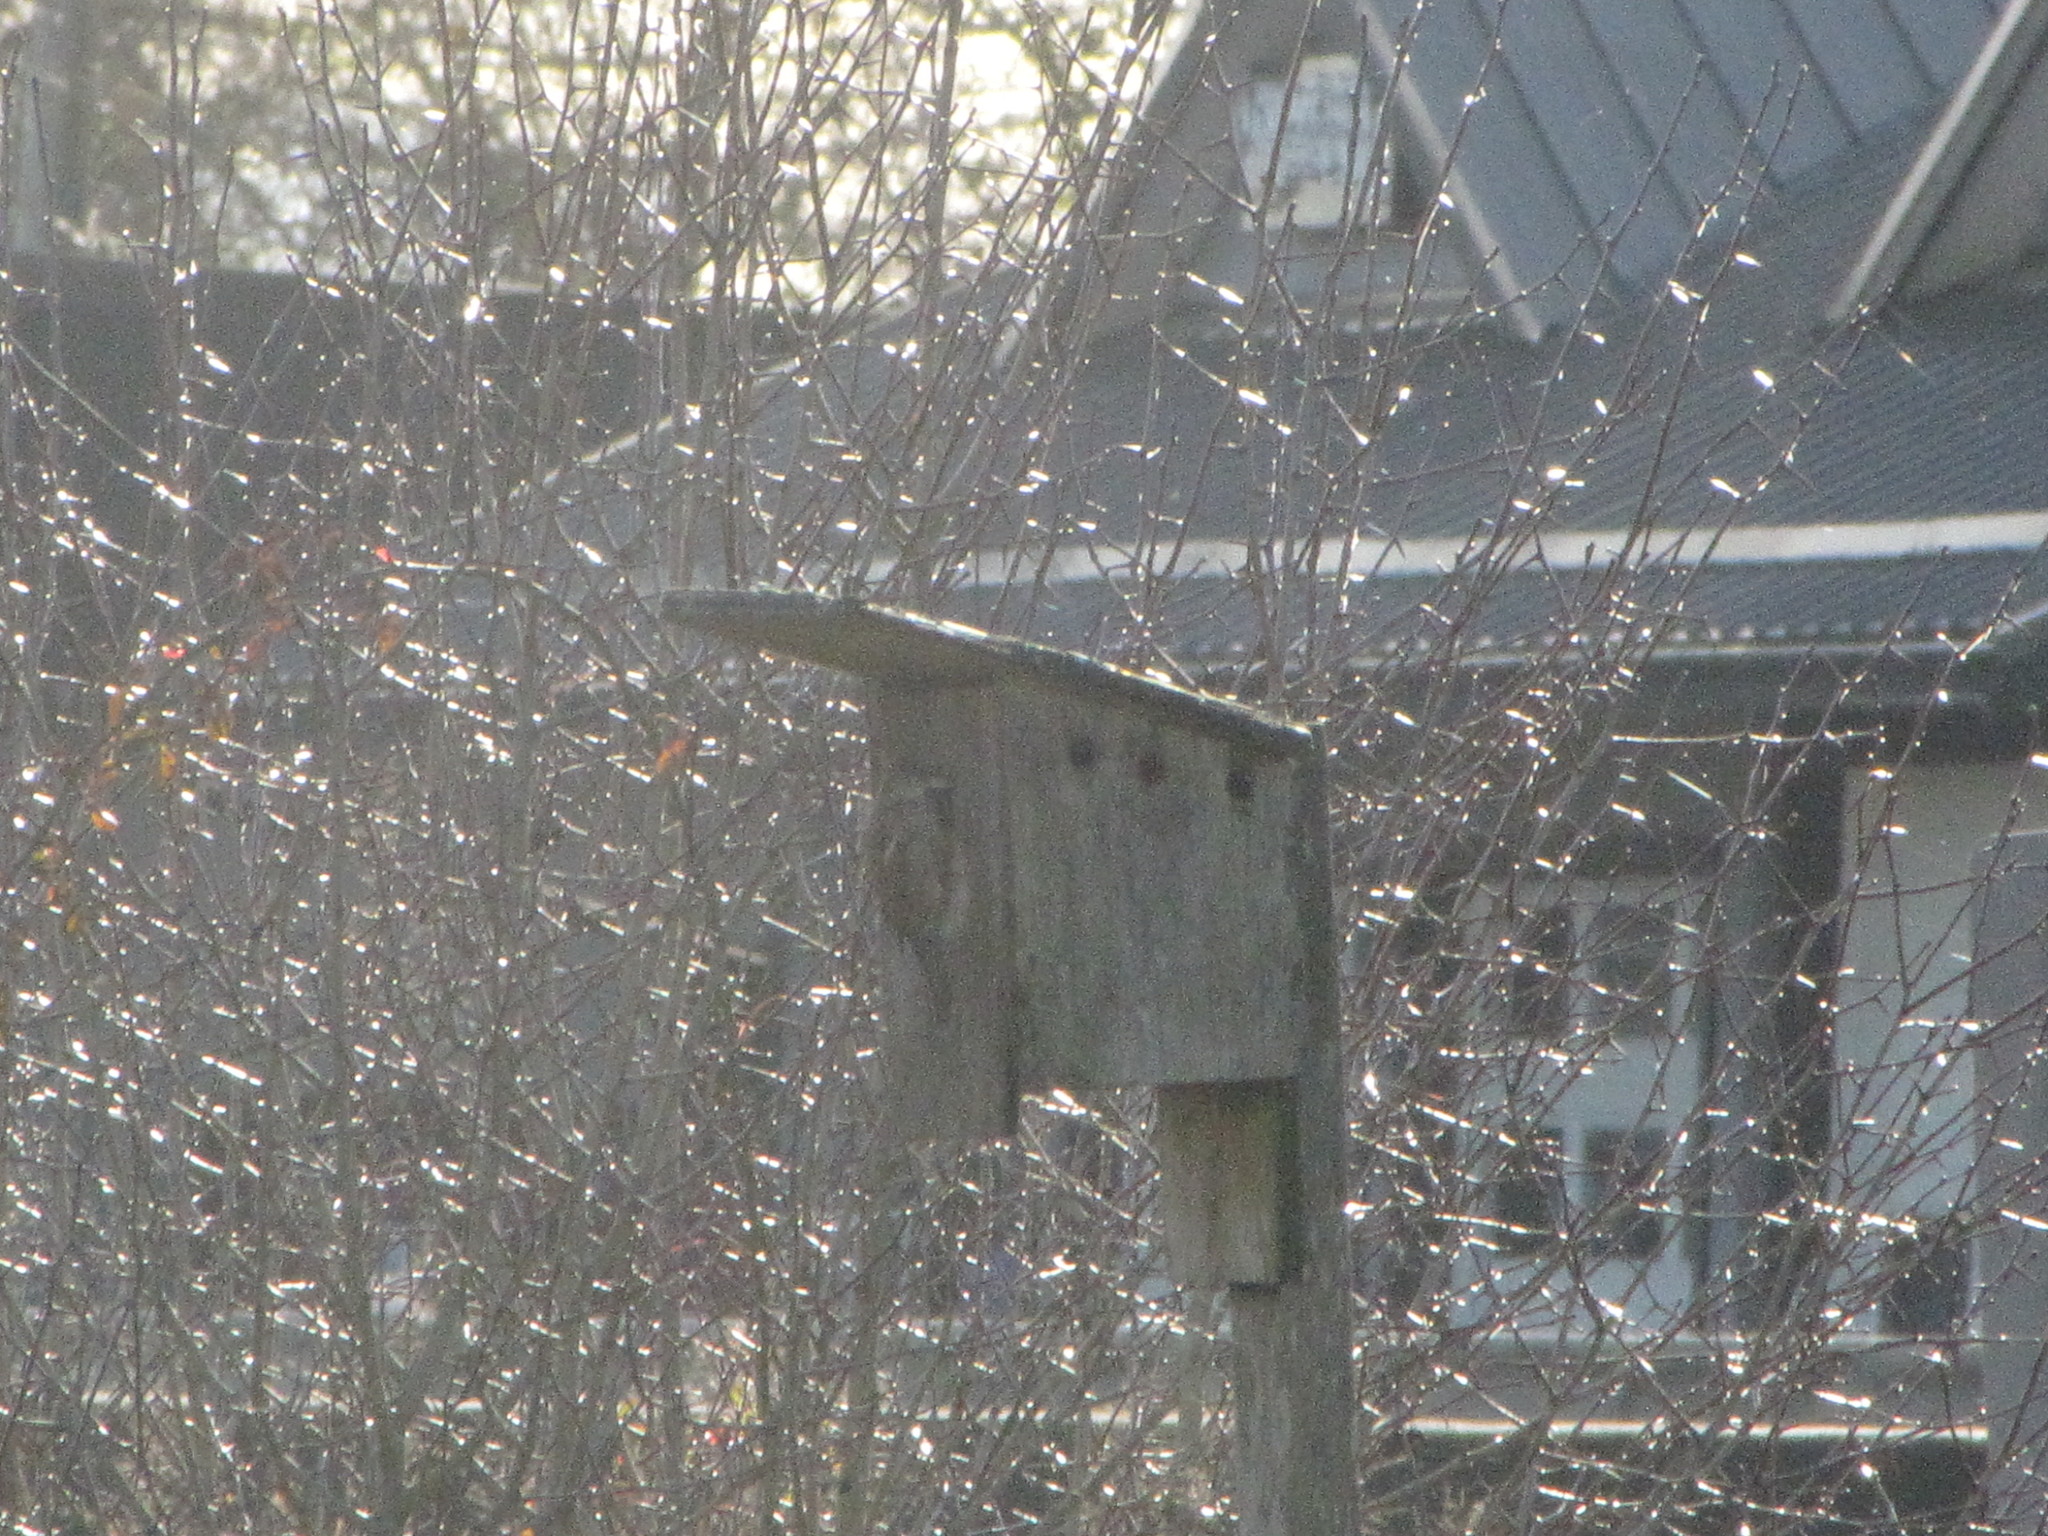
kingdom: Animalia
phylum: Chordata
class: Aves
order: Passeriformes
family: Passeridae
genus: Passer
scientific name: Passer domesticus
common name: House sparrow
